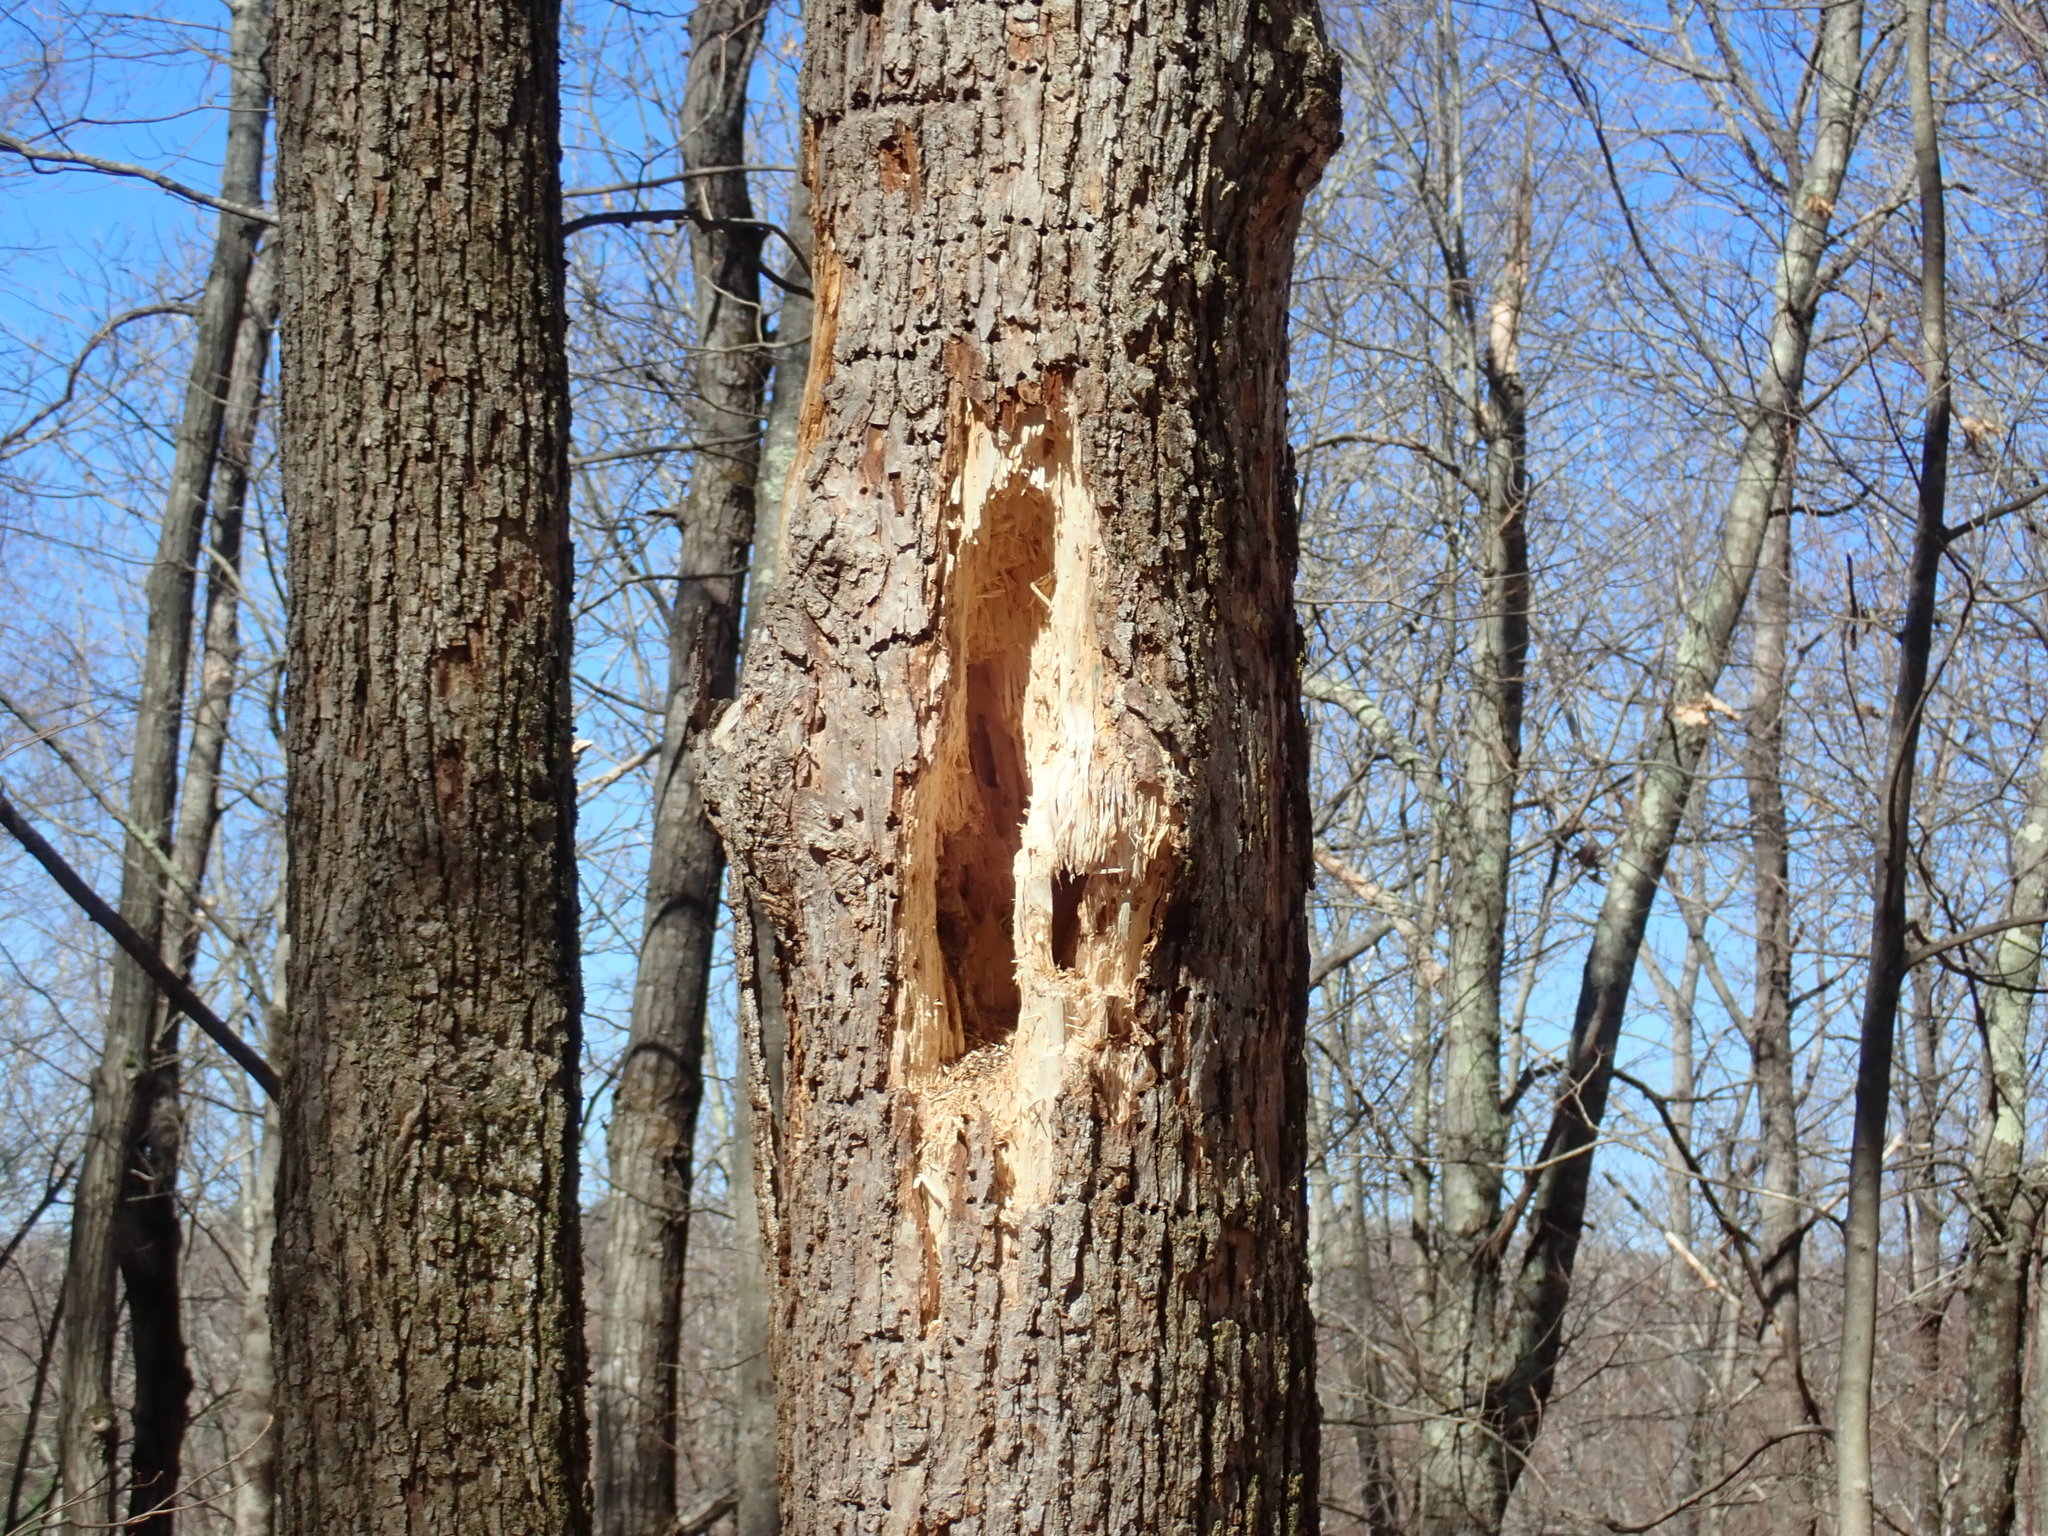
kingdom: Animalia
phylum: Chordata
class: Aves
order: Piciformes
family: Picidae
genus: Dryocopus
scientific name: Dryocopus pileatus
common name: Pileated woodpecker
